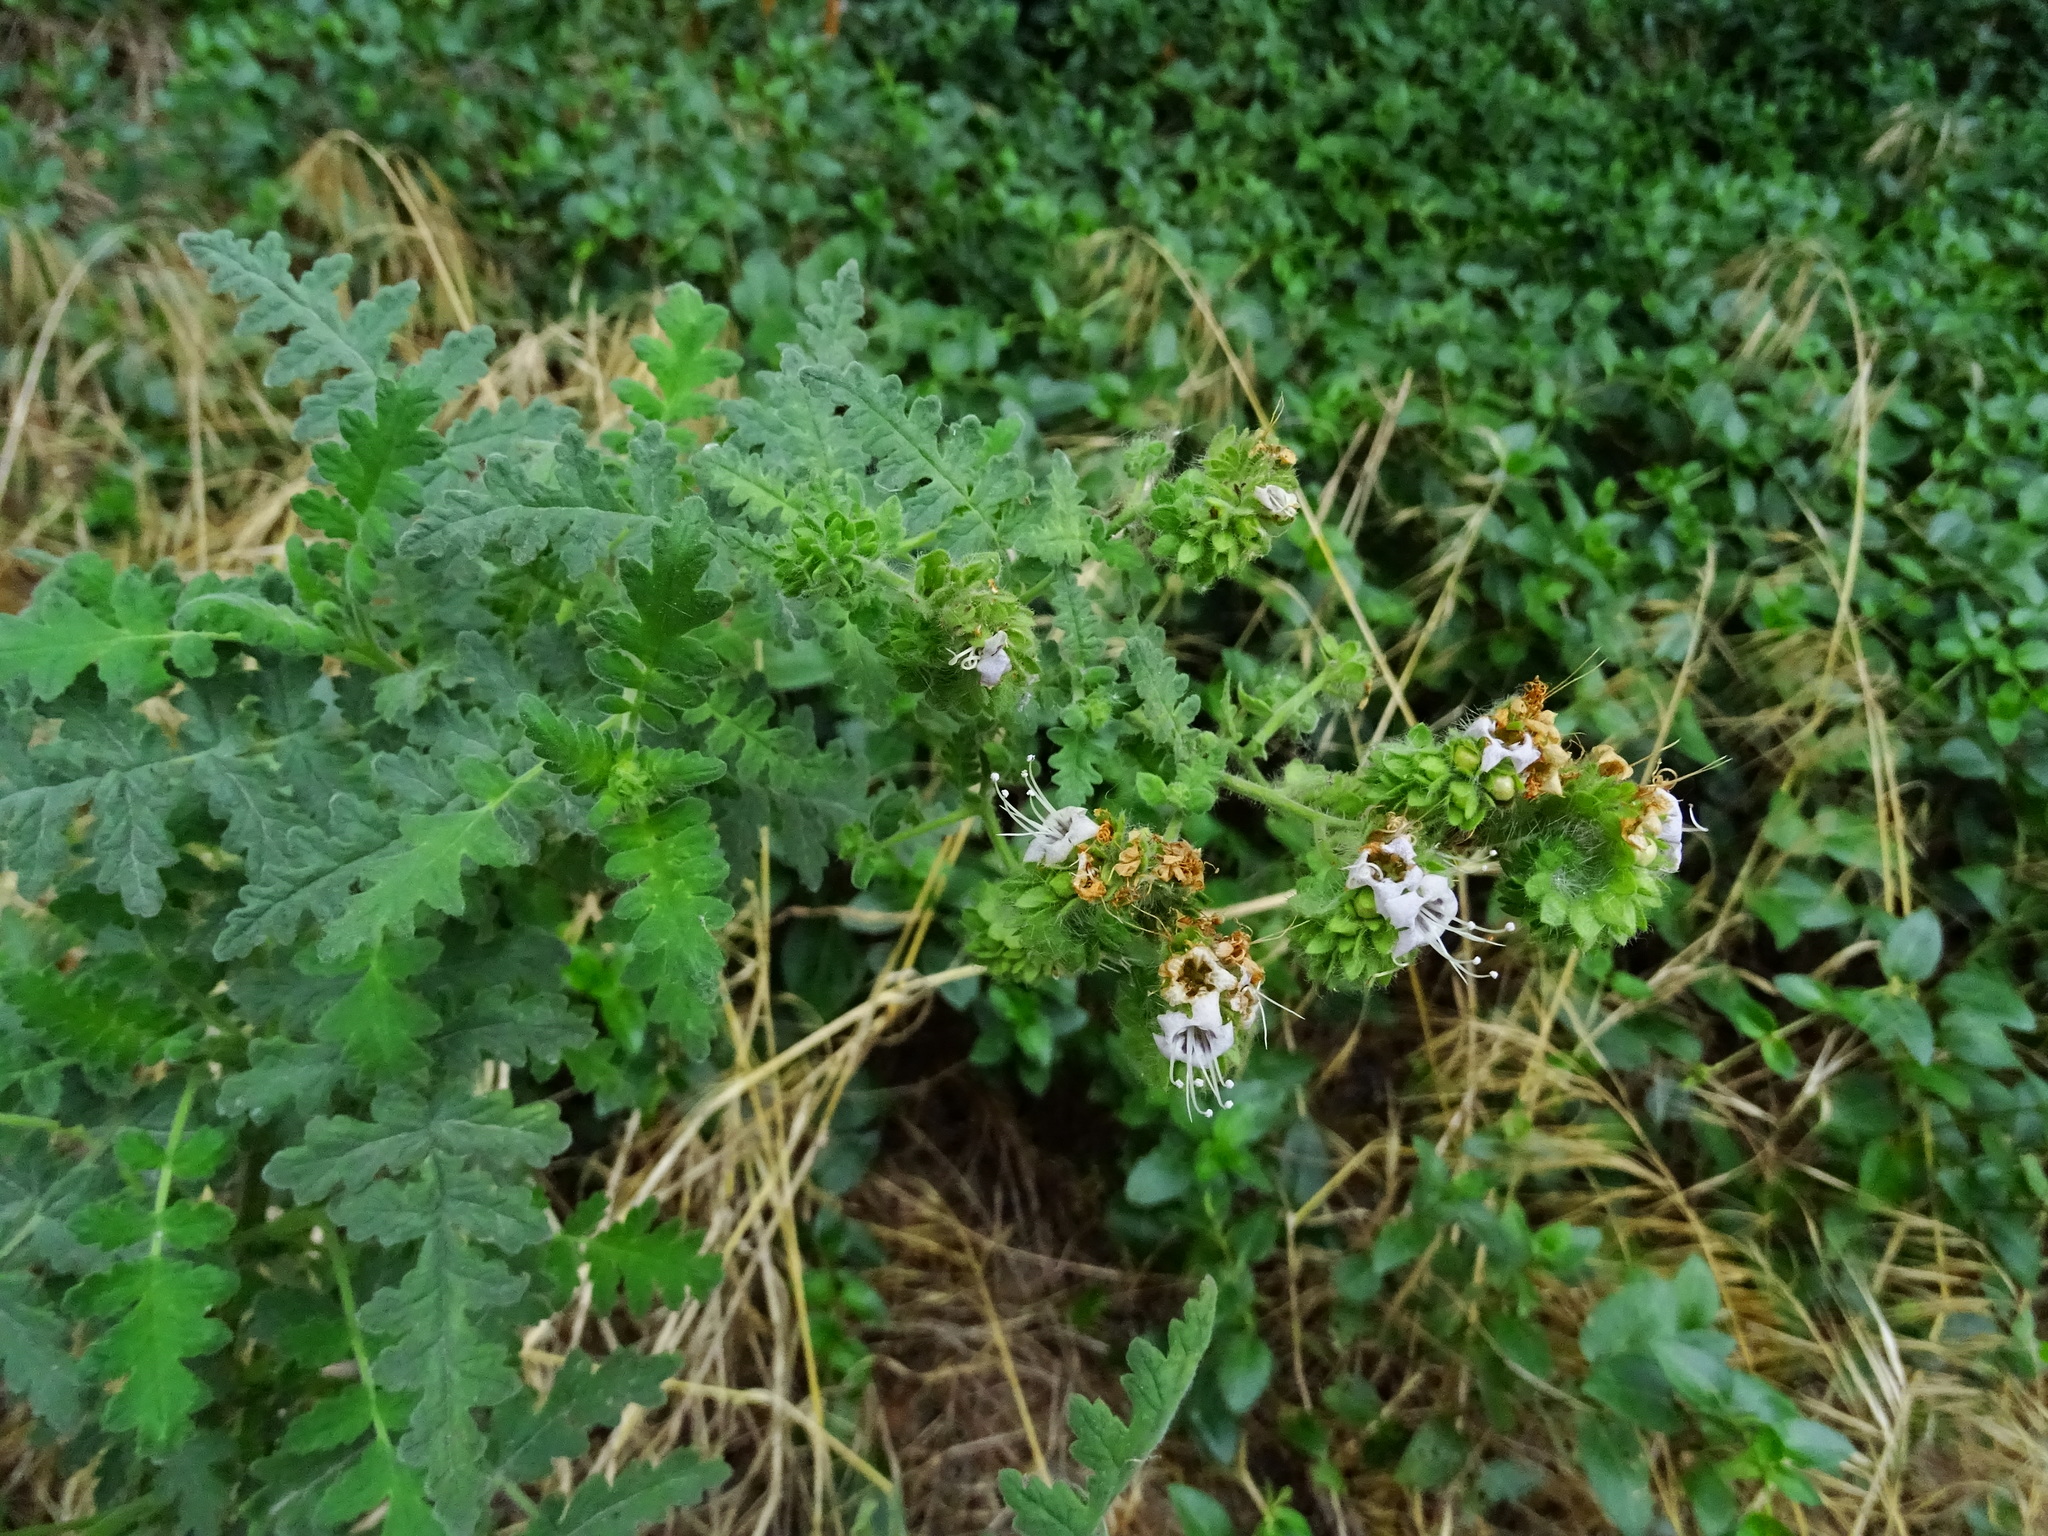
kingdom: Plantae
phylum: Tracheophyta
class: Magnoliopsida
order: Boraginales
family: Hydrophyllaceae
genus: Phacelia
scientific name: Phacelia ramosissima
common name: Branching phacelia
